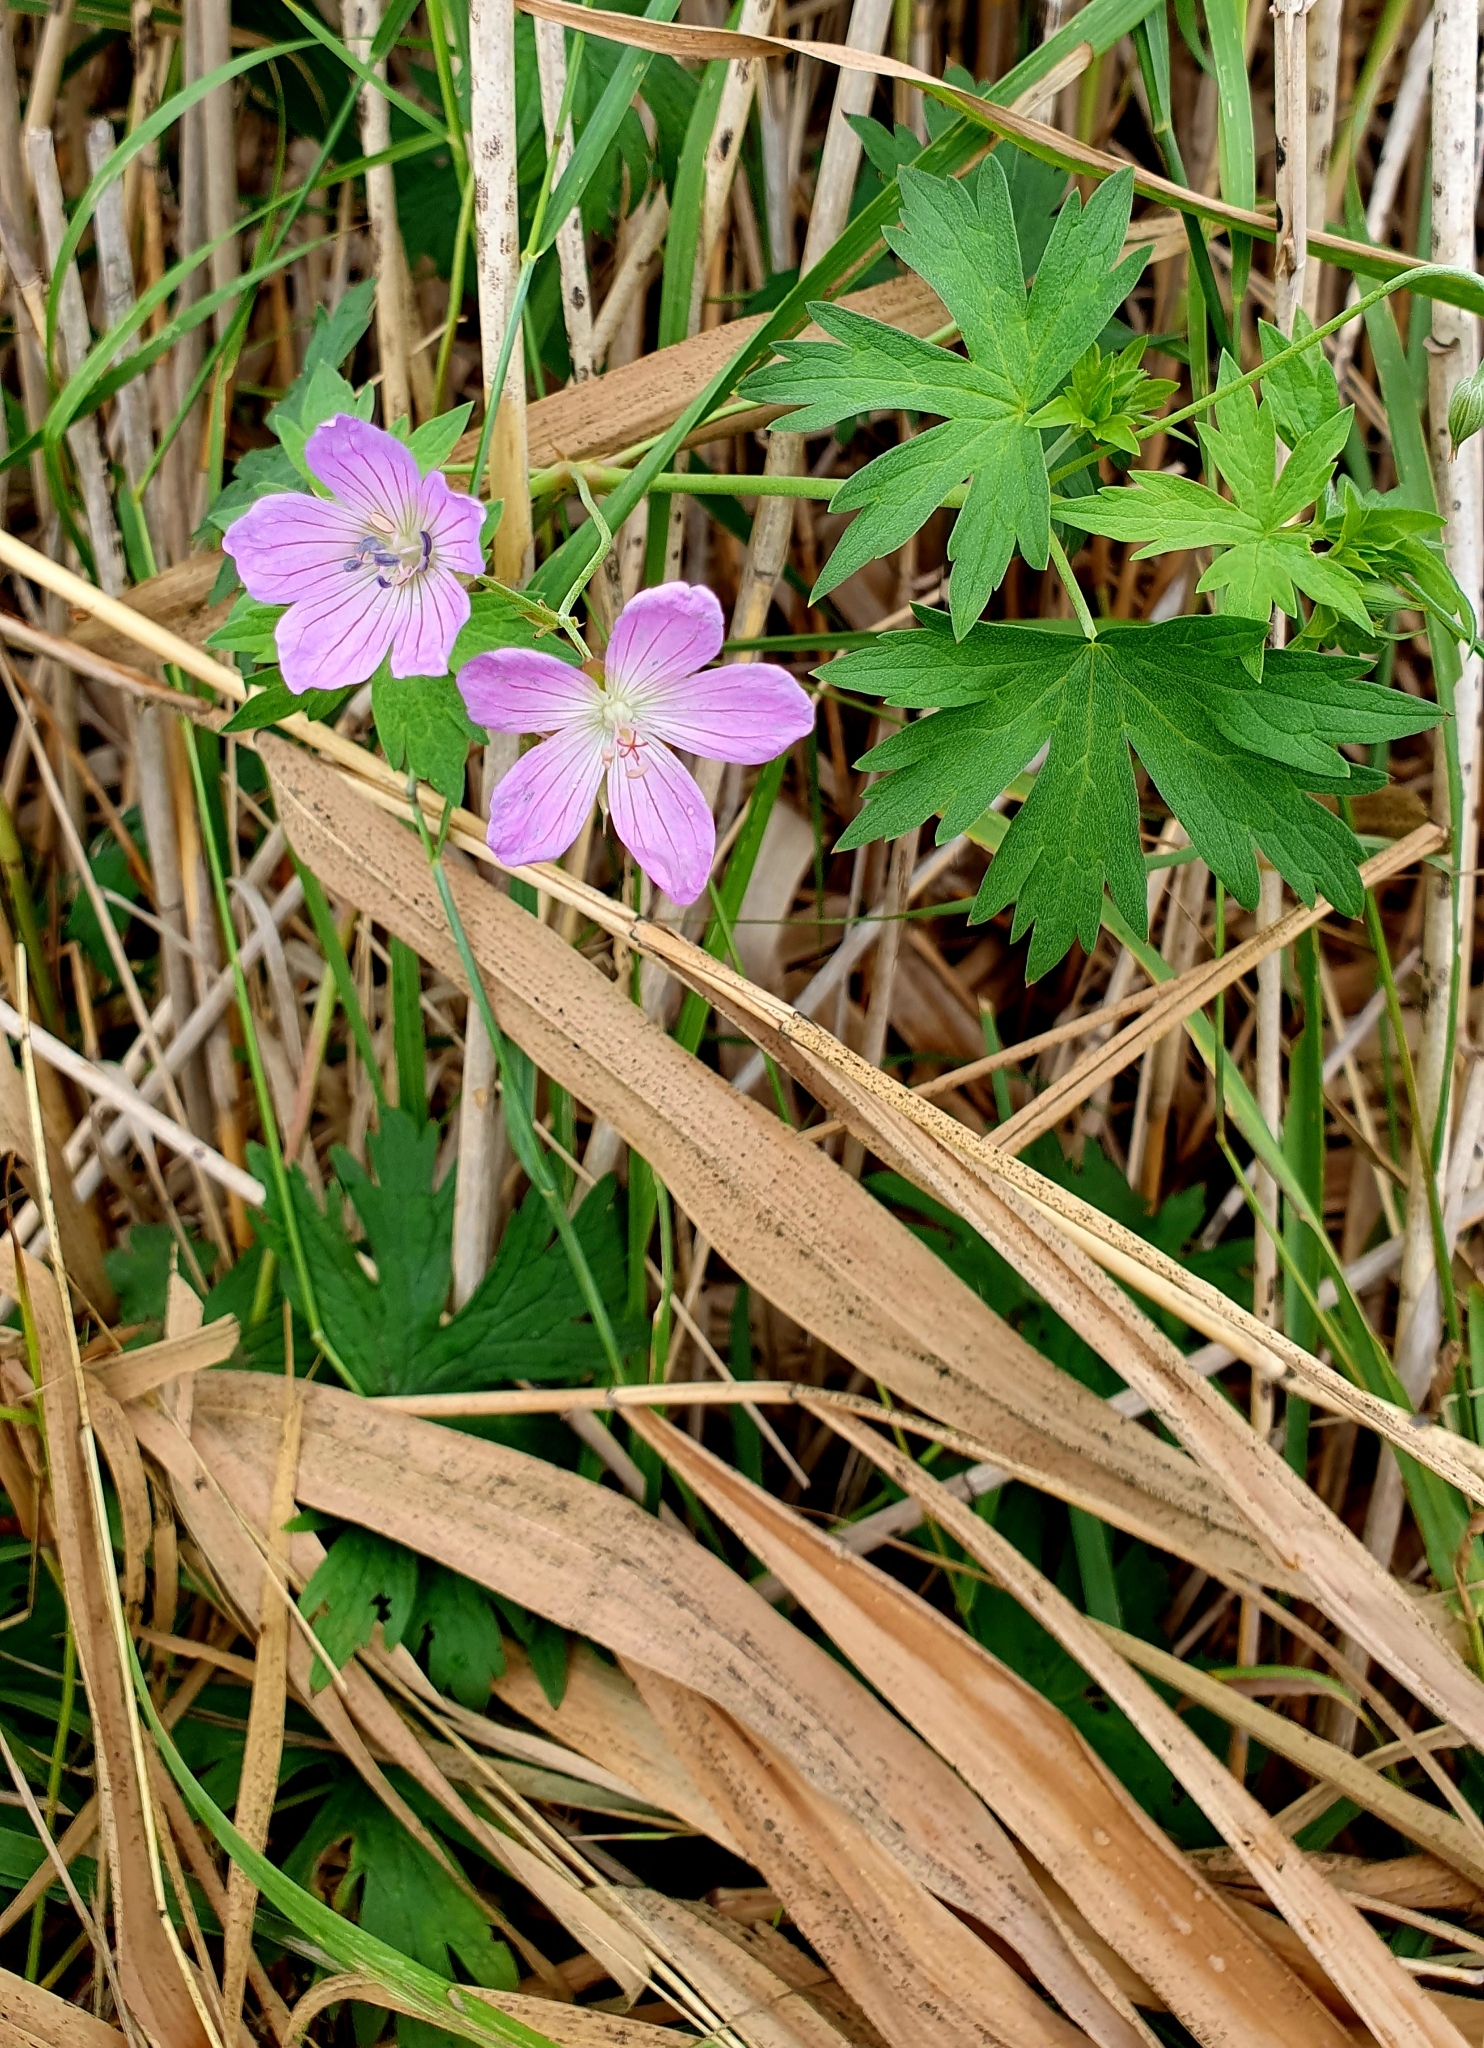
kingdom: Plantae
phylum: Tracheophyta
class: Magnoliopsida
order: Geraniales
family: Geraniaceae
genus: Geranium
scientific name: Geranium collinum
